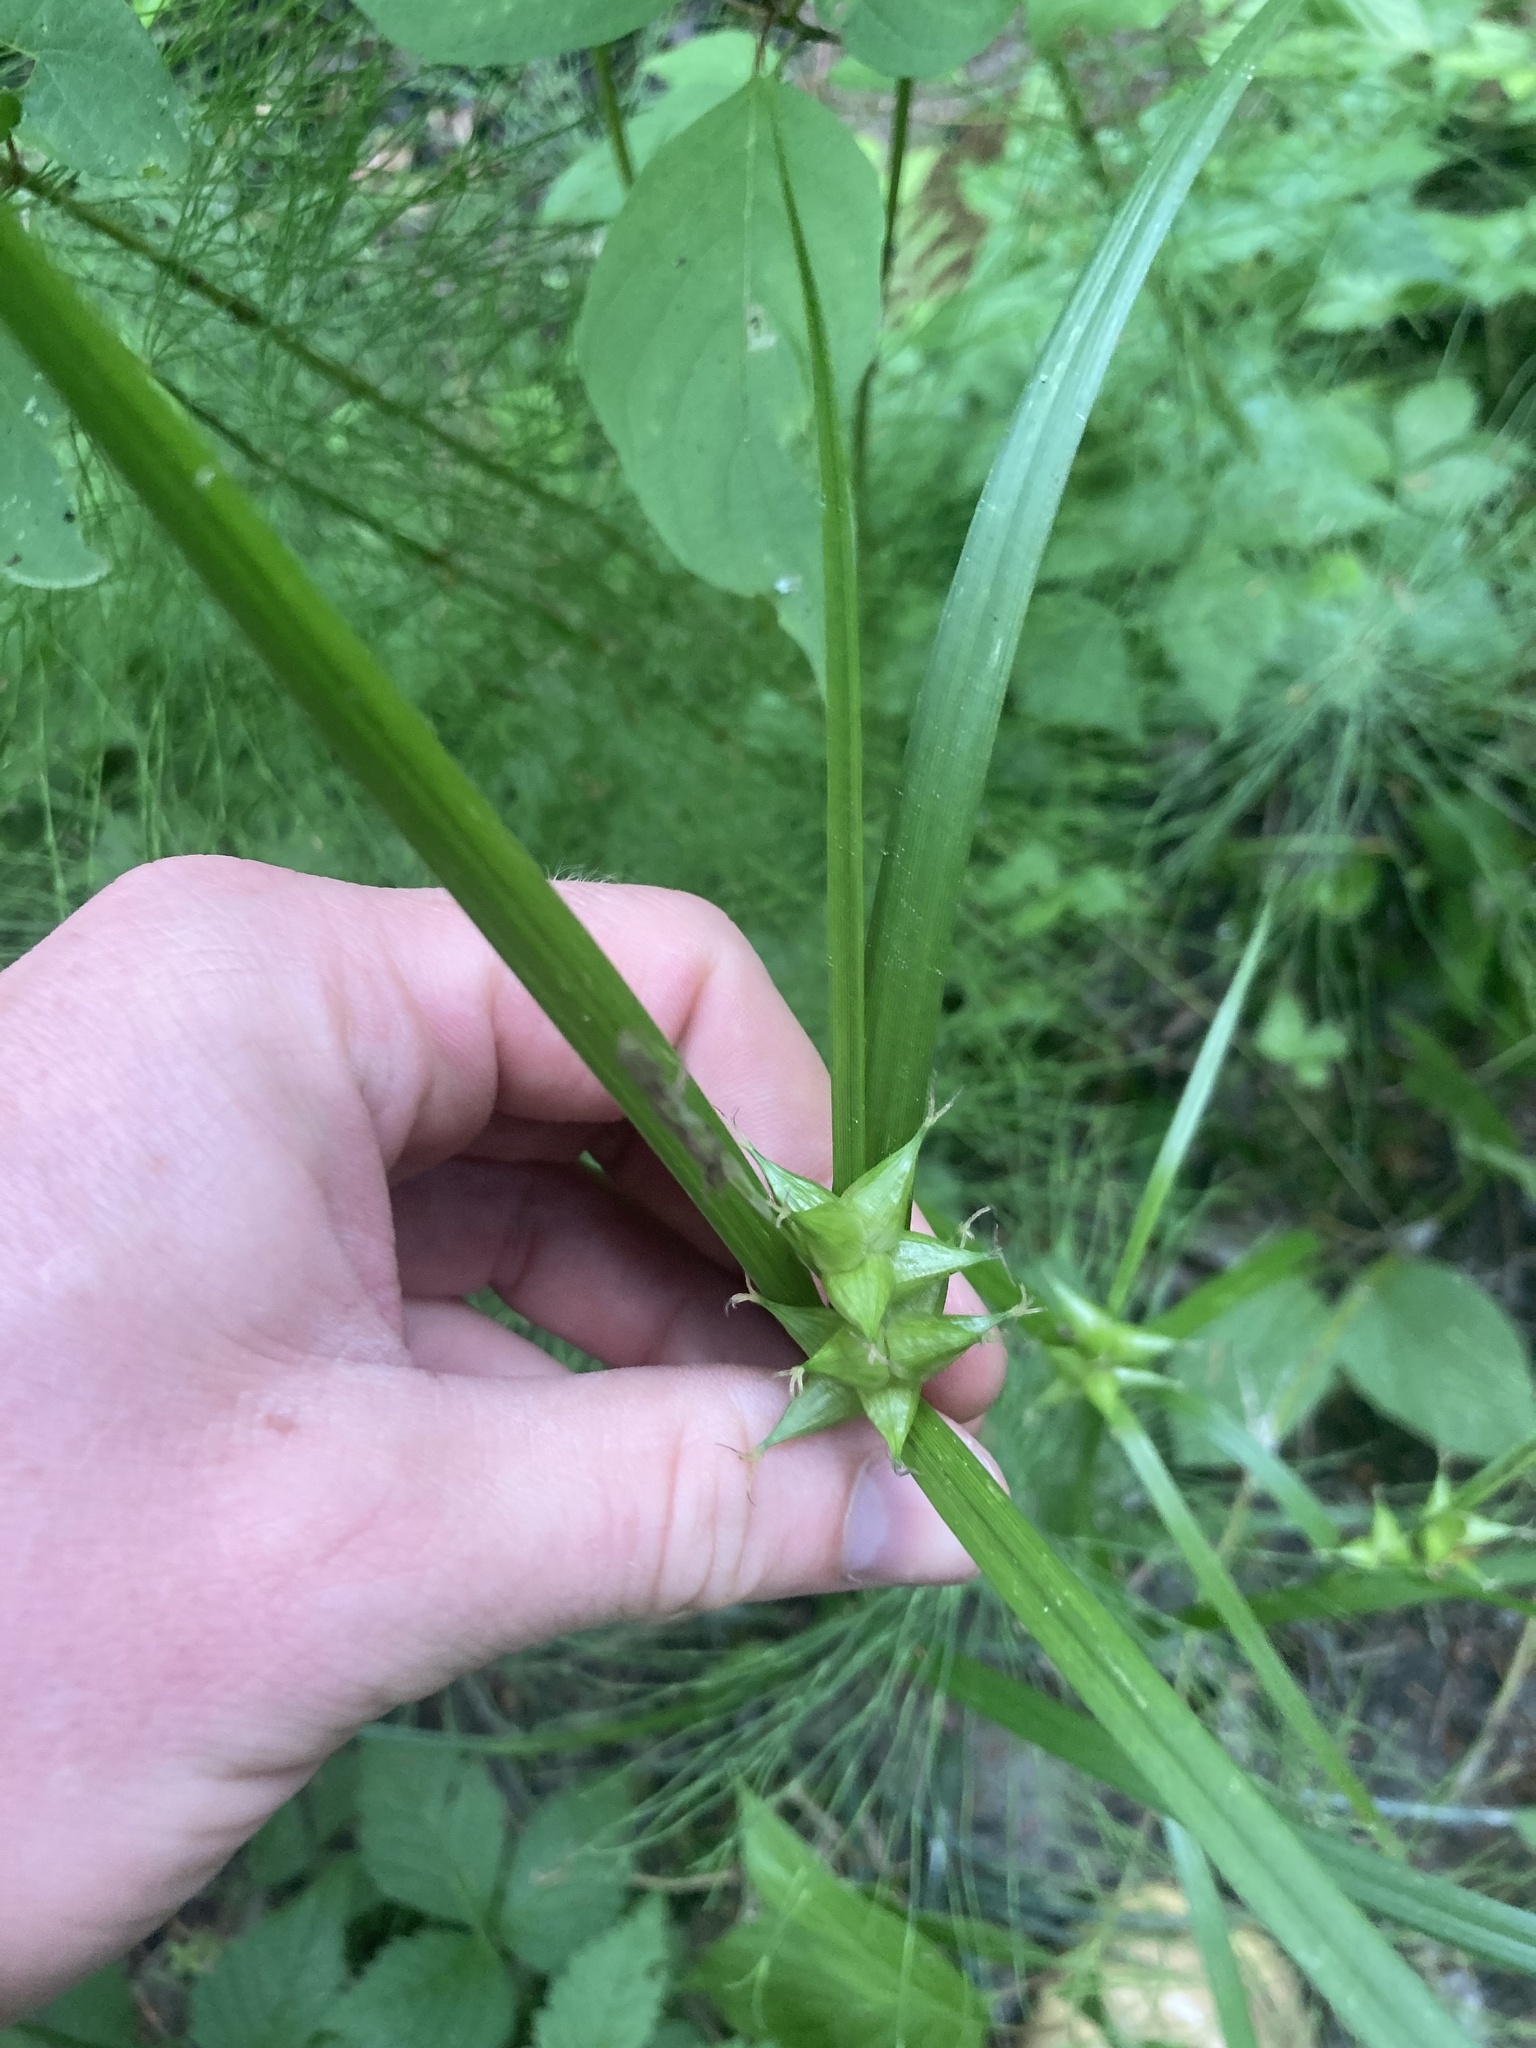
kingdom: Plantae
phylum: Tracheophyta
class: Liliopsida
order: Poales
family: Cyperaceae
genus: Carex
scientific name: Carex intumescens
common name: Greater bladder sedge
